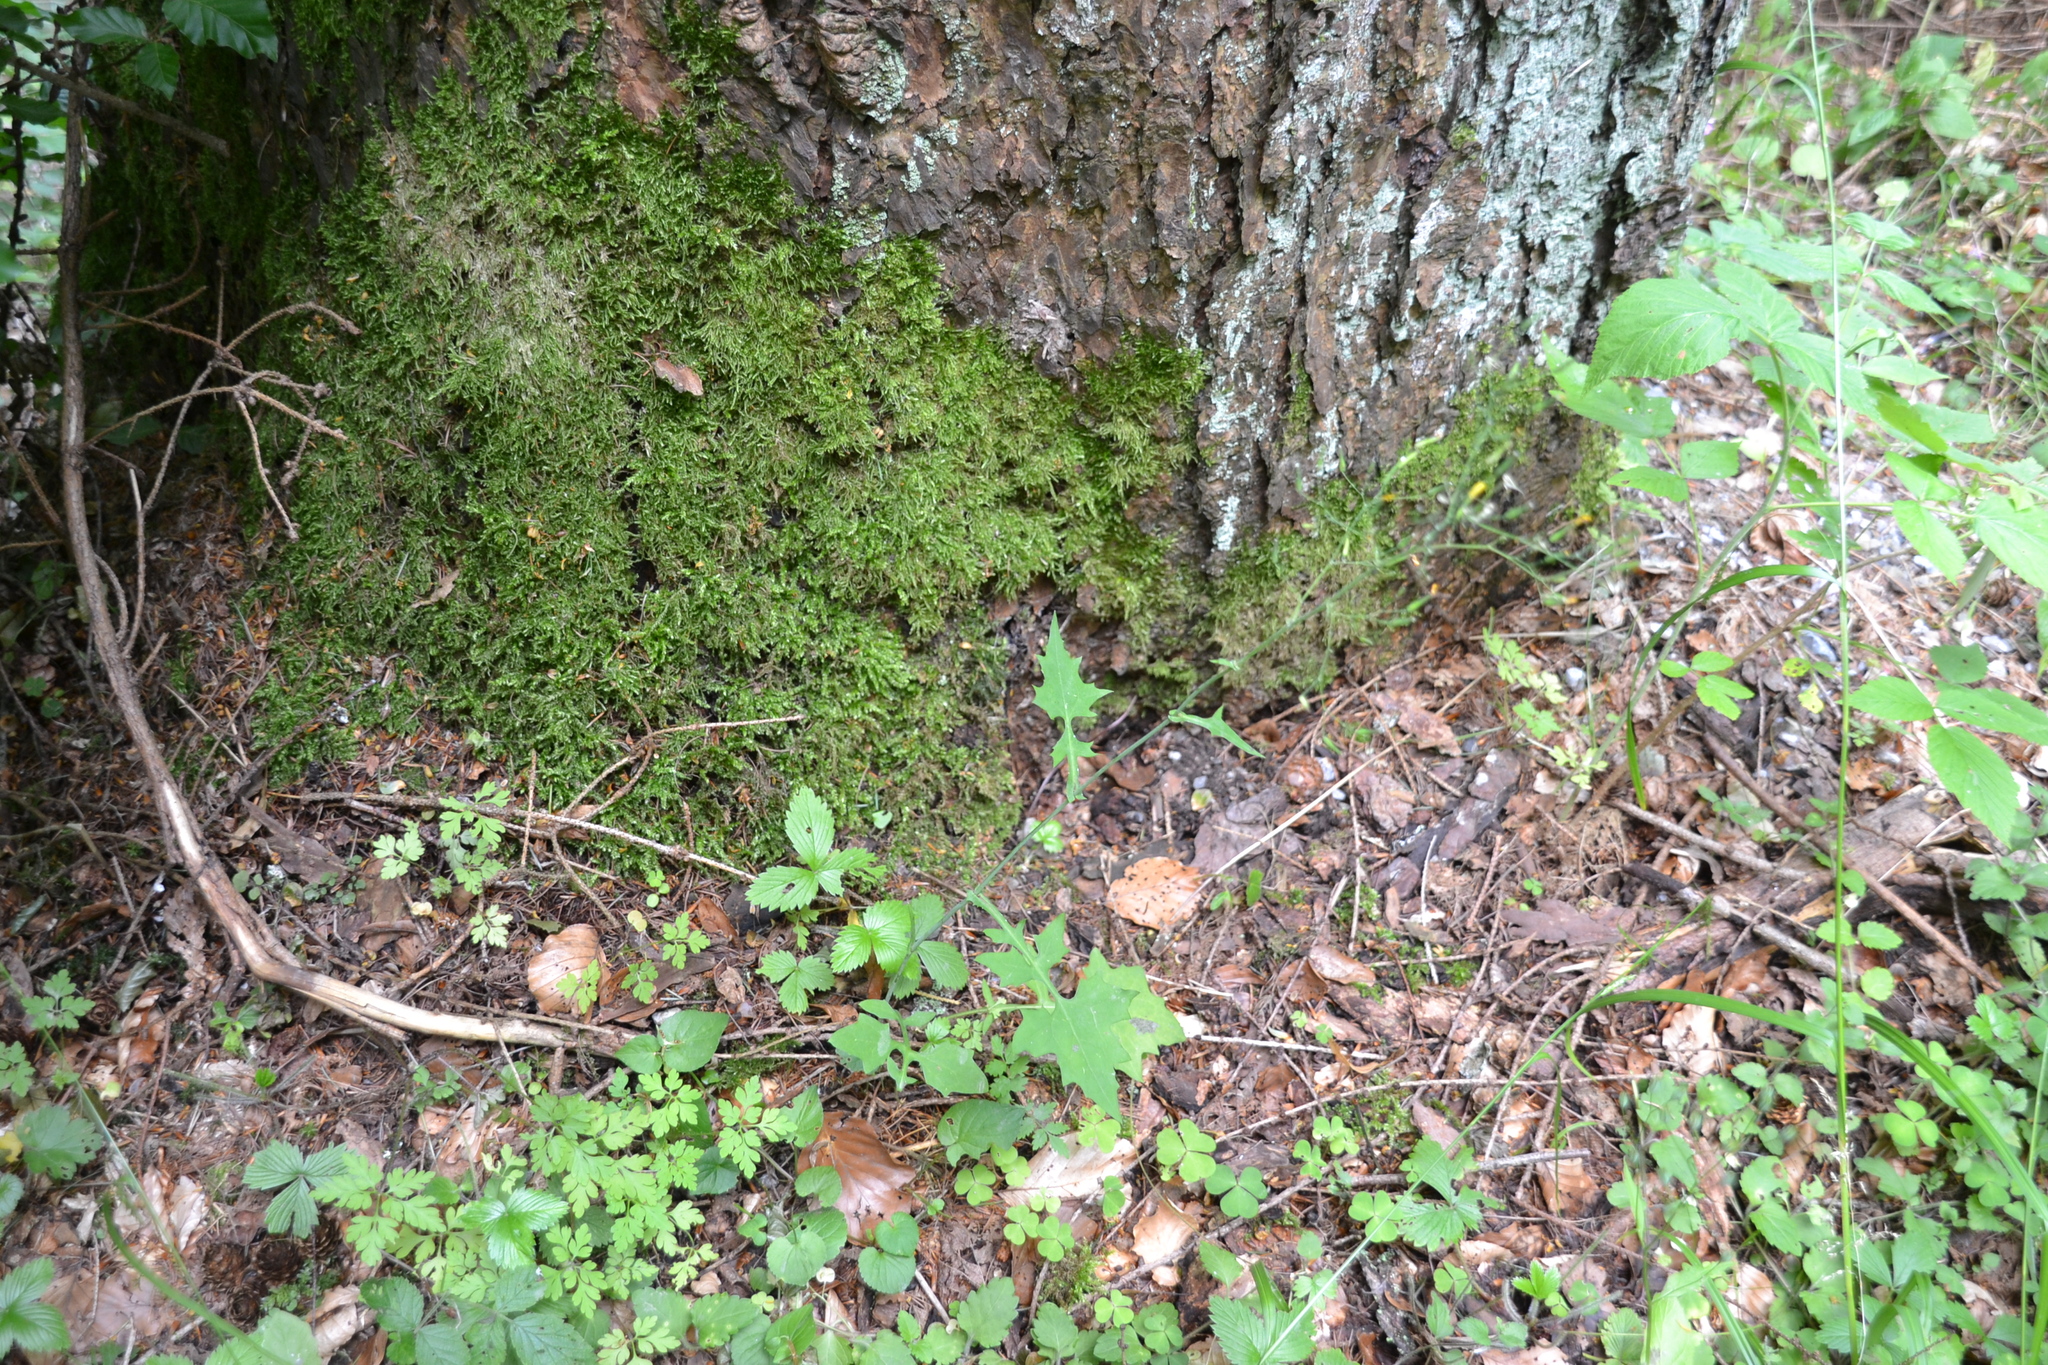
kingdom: Plantae
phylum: Tracheophyta
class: Magnoliopsida
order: Asterales
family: Asteraceae
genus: Mycelis
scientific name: Mycelis muralis
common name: Wall lettuce
